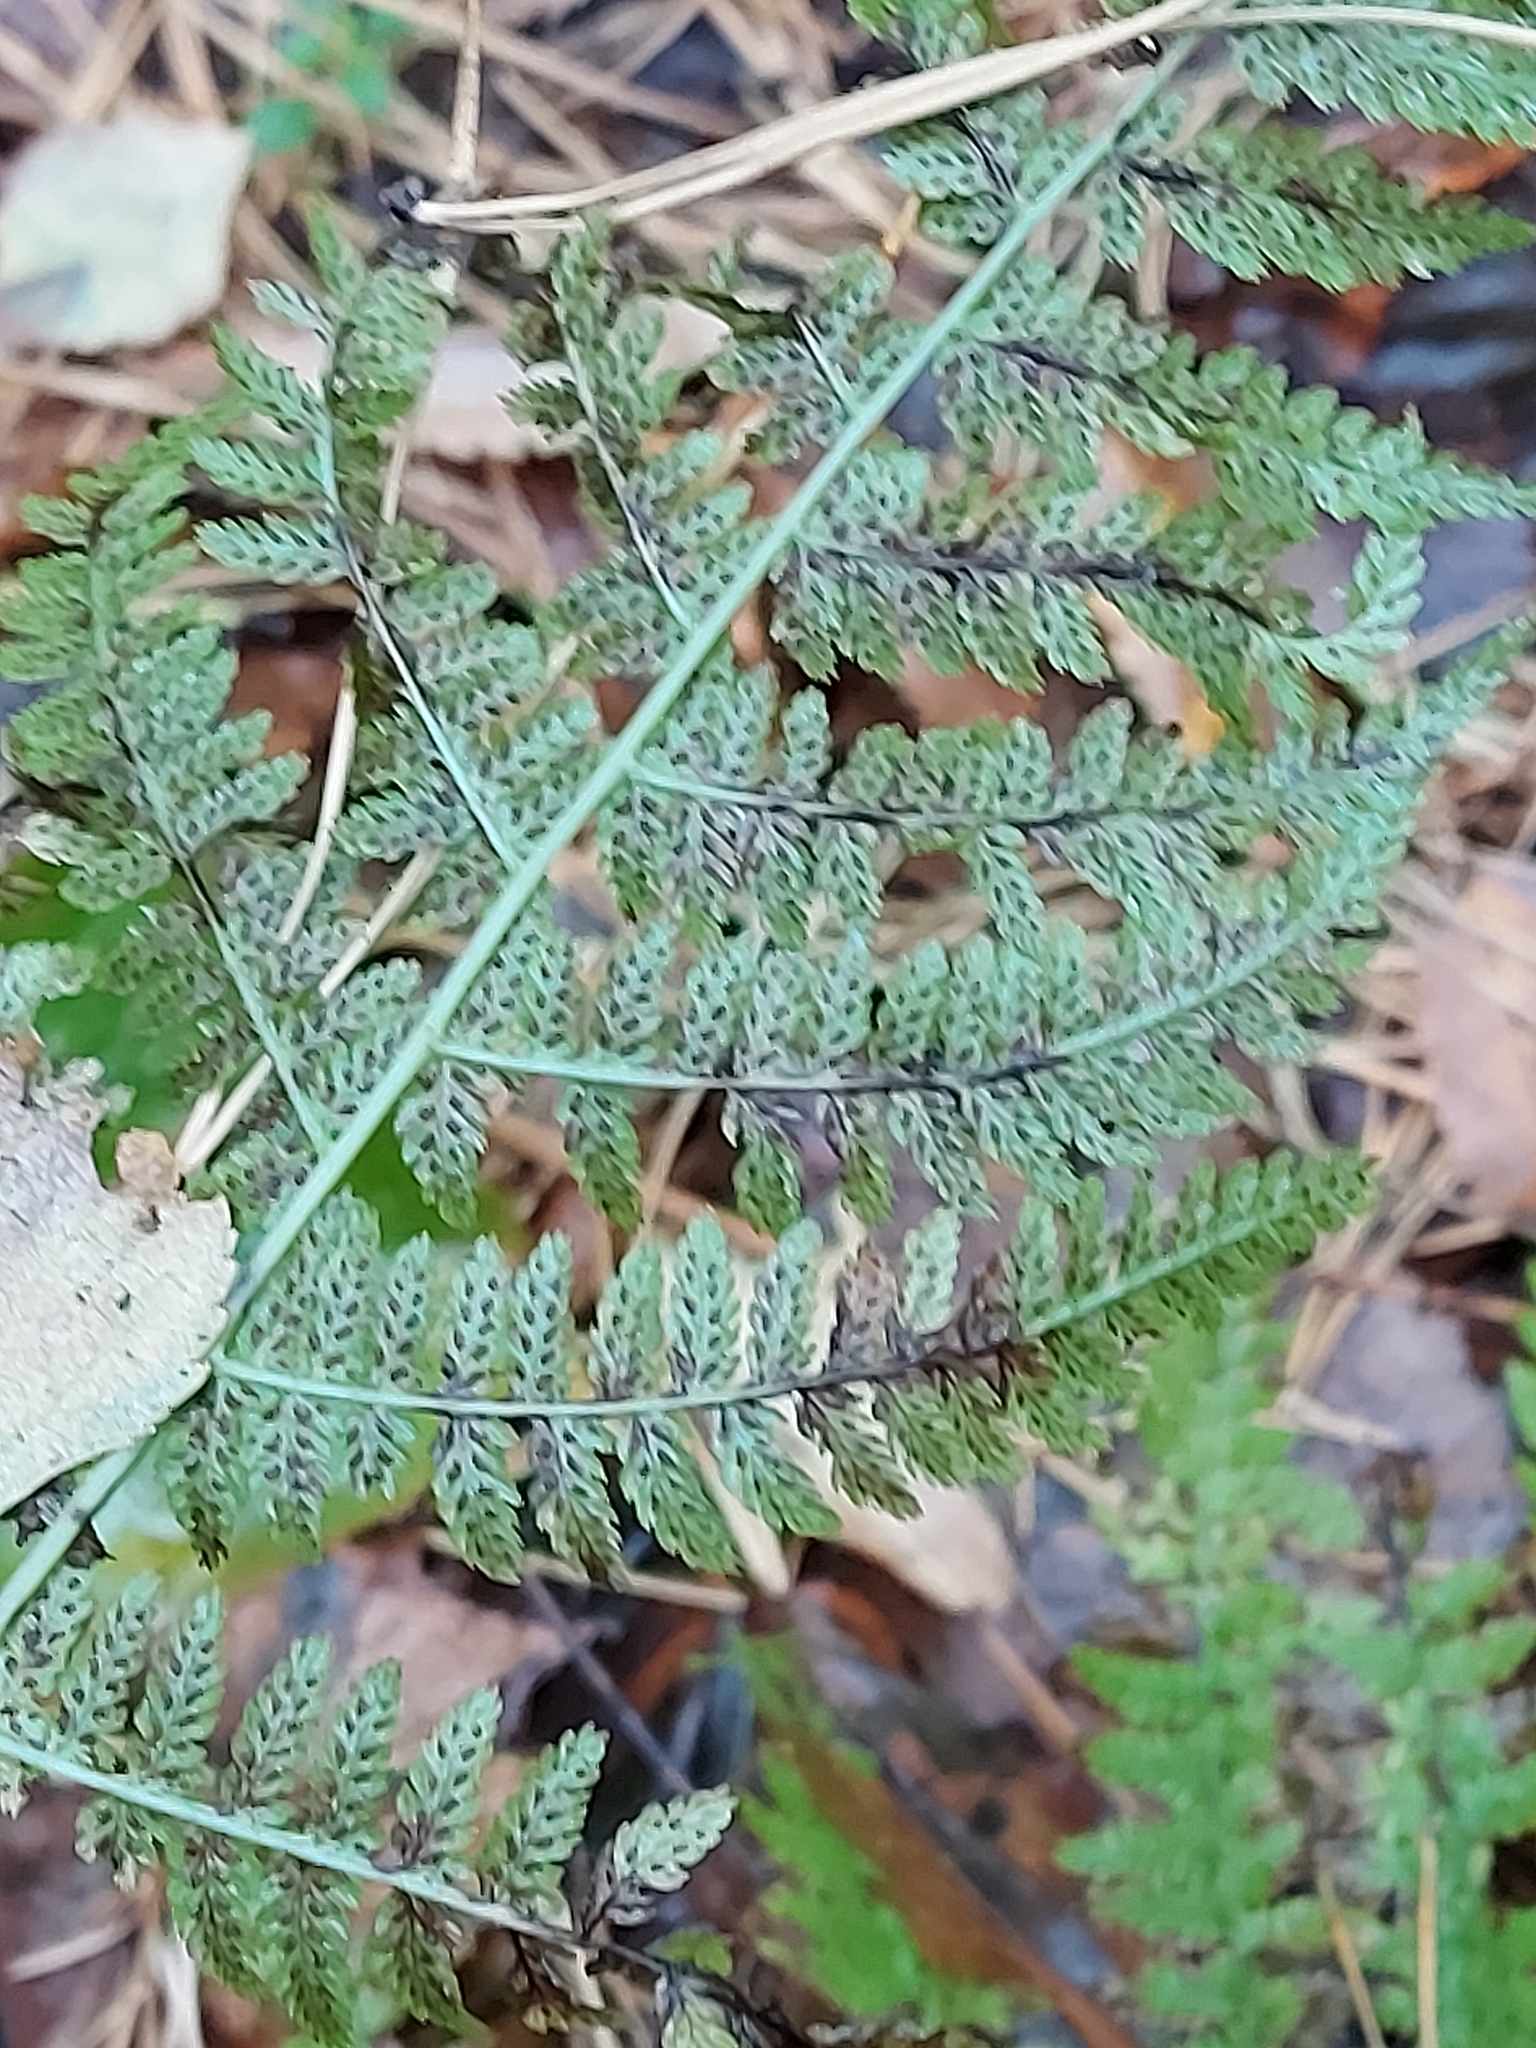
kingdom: Plantae
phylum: Tracheophyta
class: Polypodiopsida
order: Polypodiales
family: Athyriaceae
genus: Athyrium
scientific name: Athyrium filix-femina
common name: Lady fern
